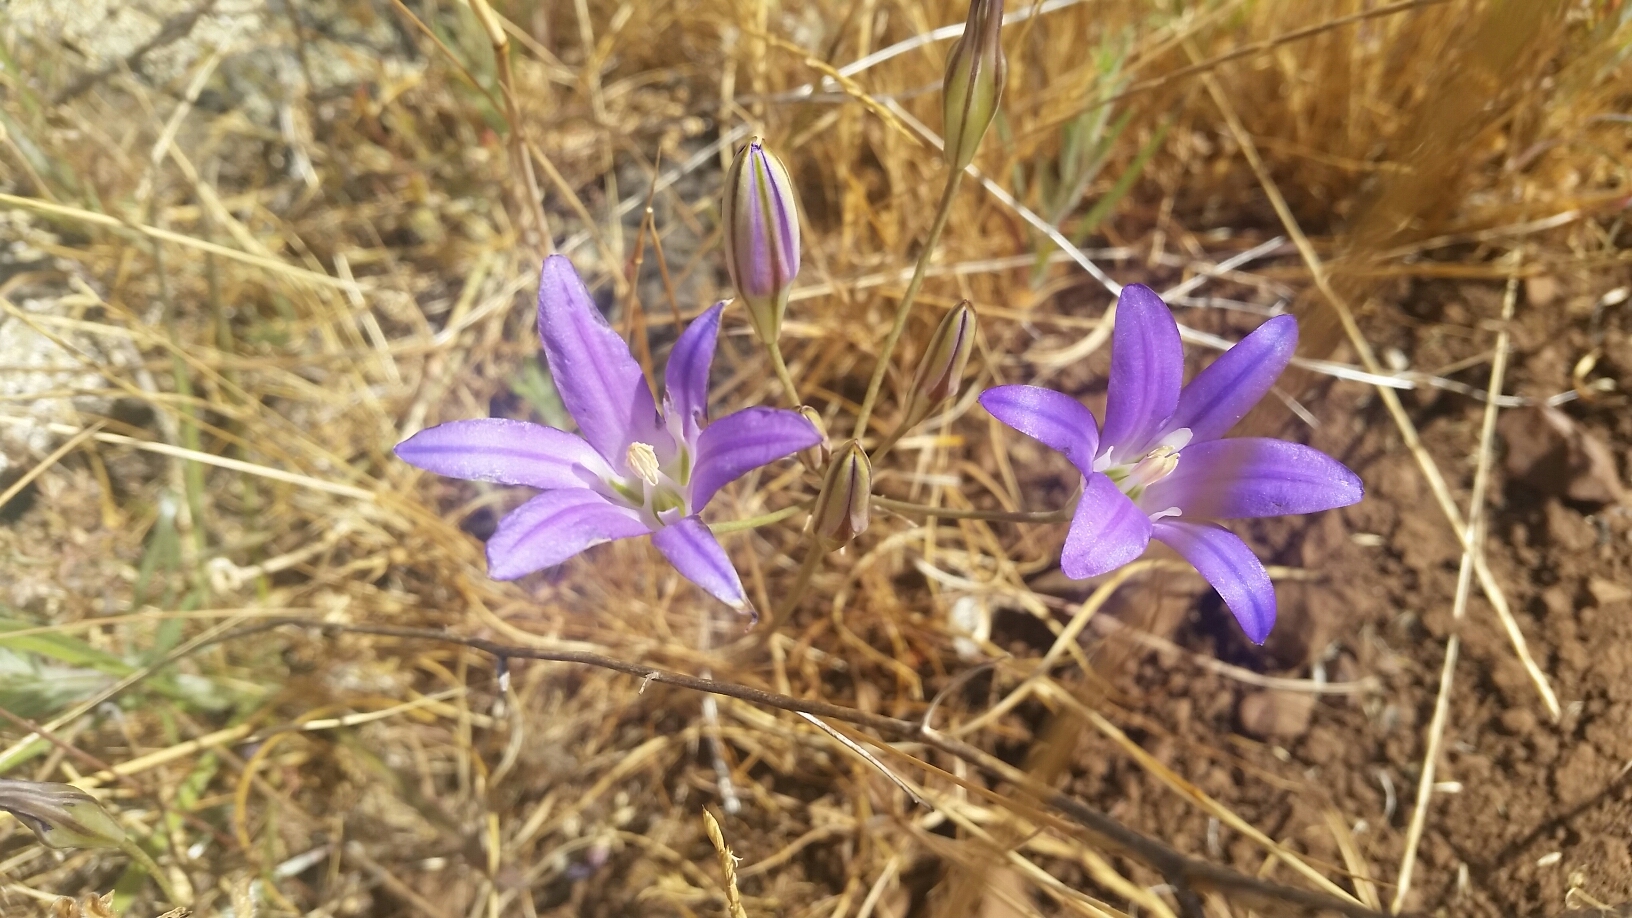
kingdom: Plantae
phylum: Tracheophyta
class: Liliopsida
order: Asparagales
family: Asparagaceae
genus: Brodiaea
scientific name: Brodiaea elegans
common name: Elegant cluster-lily
